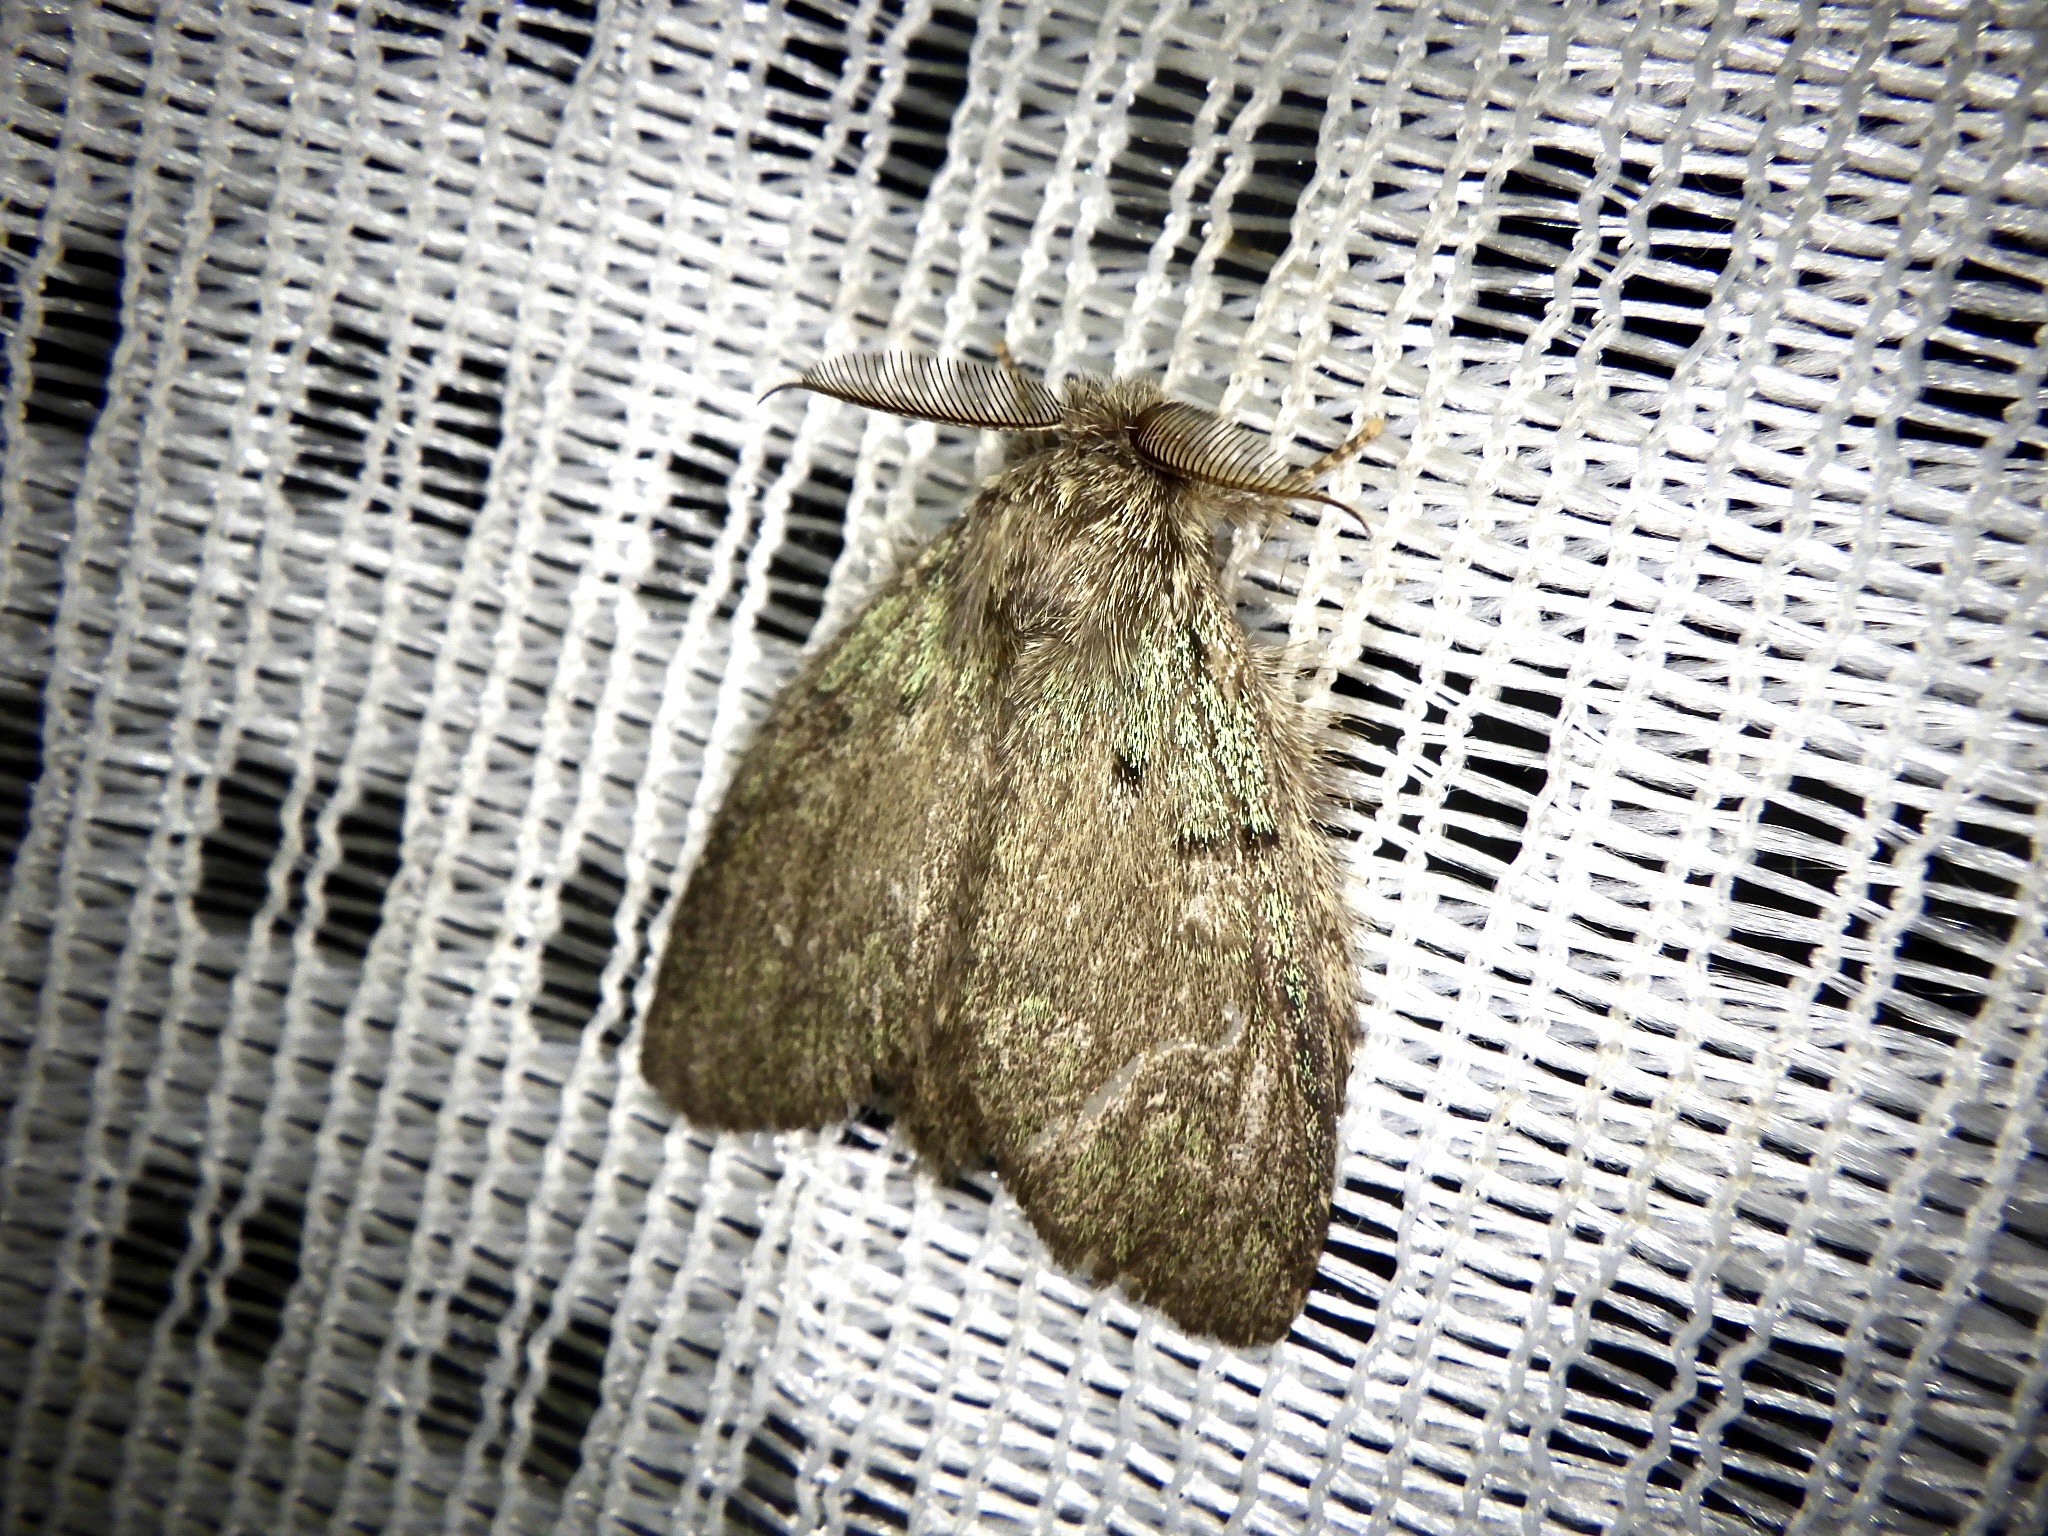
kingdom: Animalia
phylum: Arthropoda
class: Insecta
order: Lepidoptera
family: Notodontidae
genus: Syntypistis
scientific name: Syntypistis cyanea
